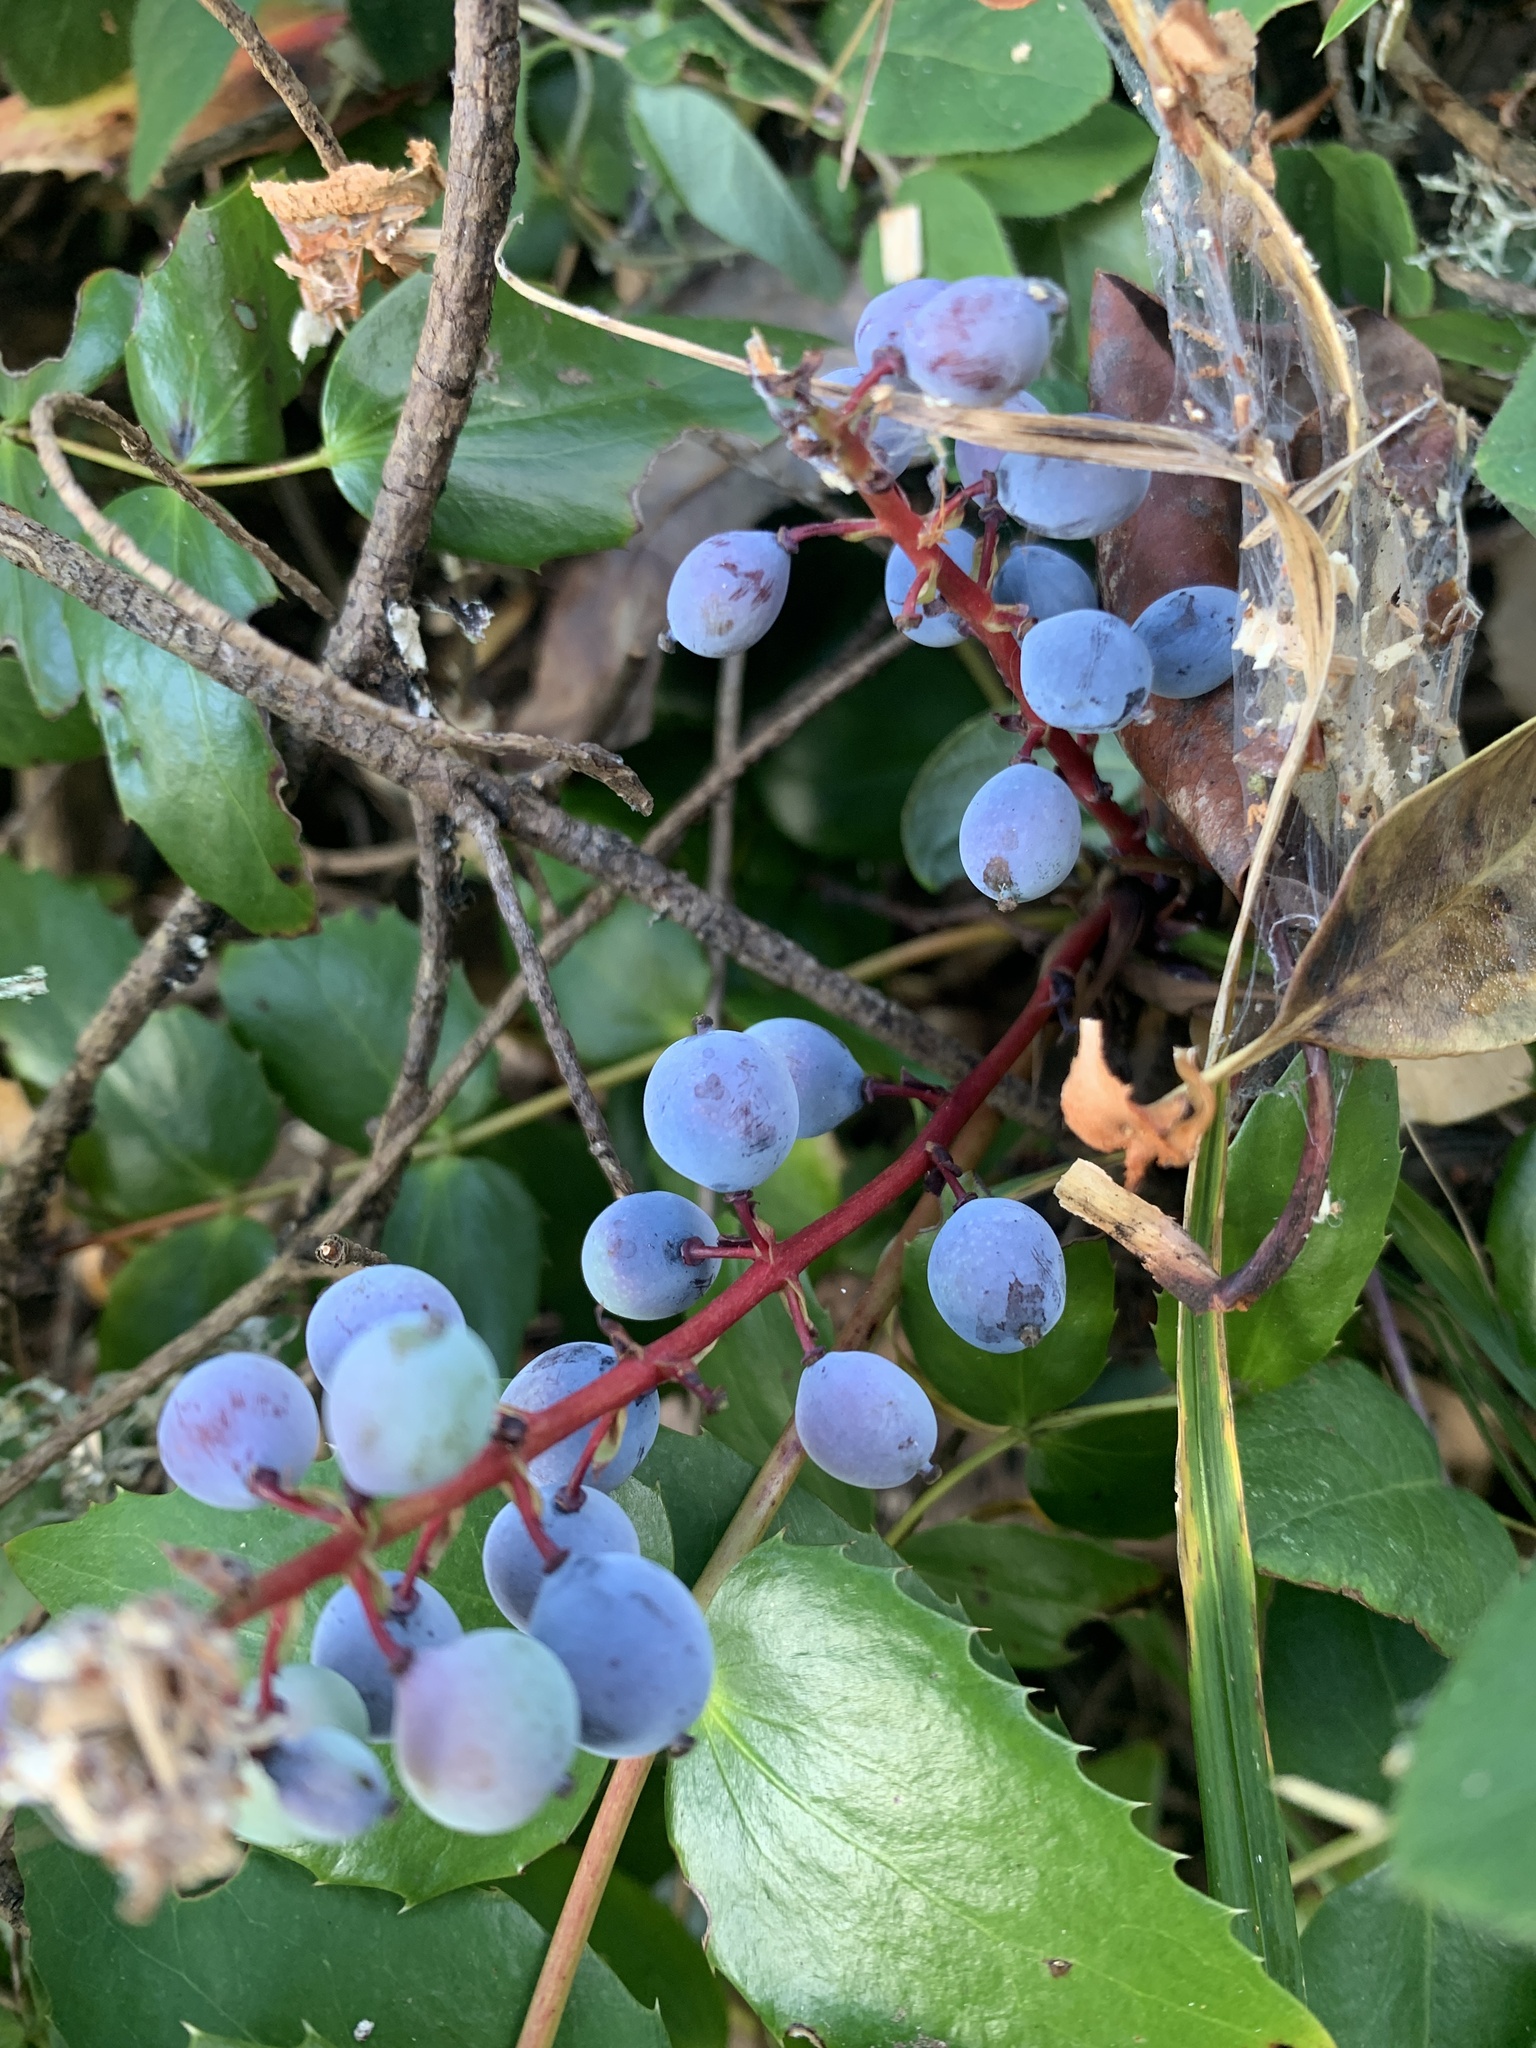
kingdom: Plantae
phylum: Tracheophyta
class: Magnoliopsida
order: Ranunculales
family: Berberidaceae
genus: Mahonia
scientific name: Mahonia nervosa
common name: Cascade oregon-grape
